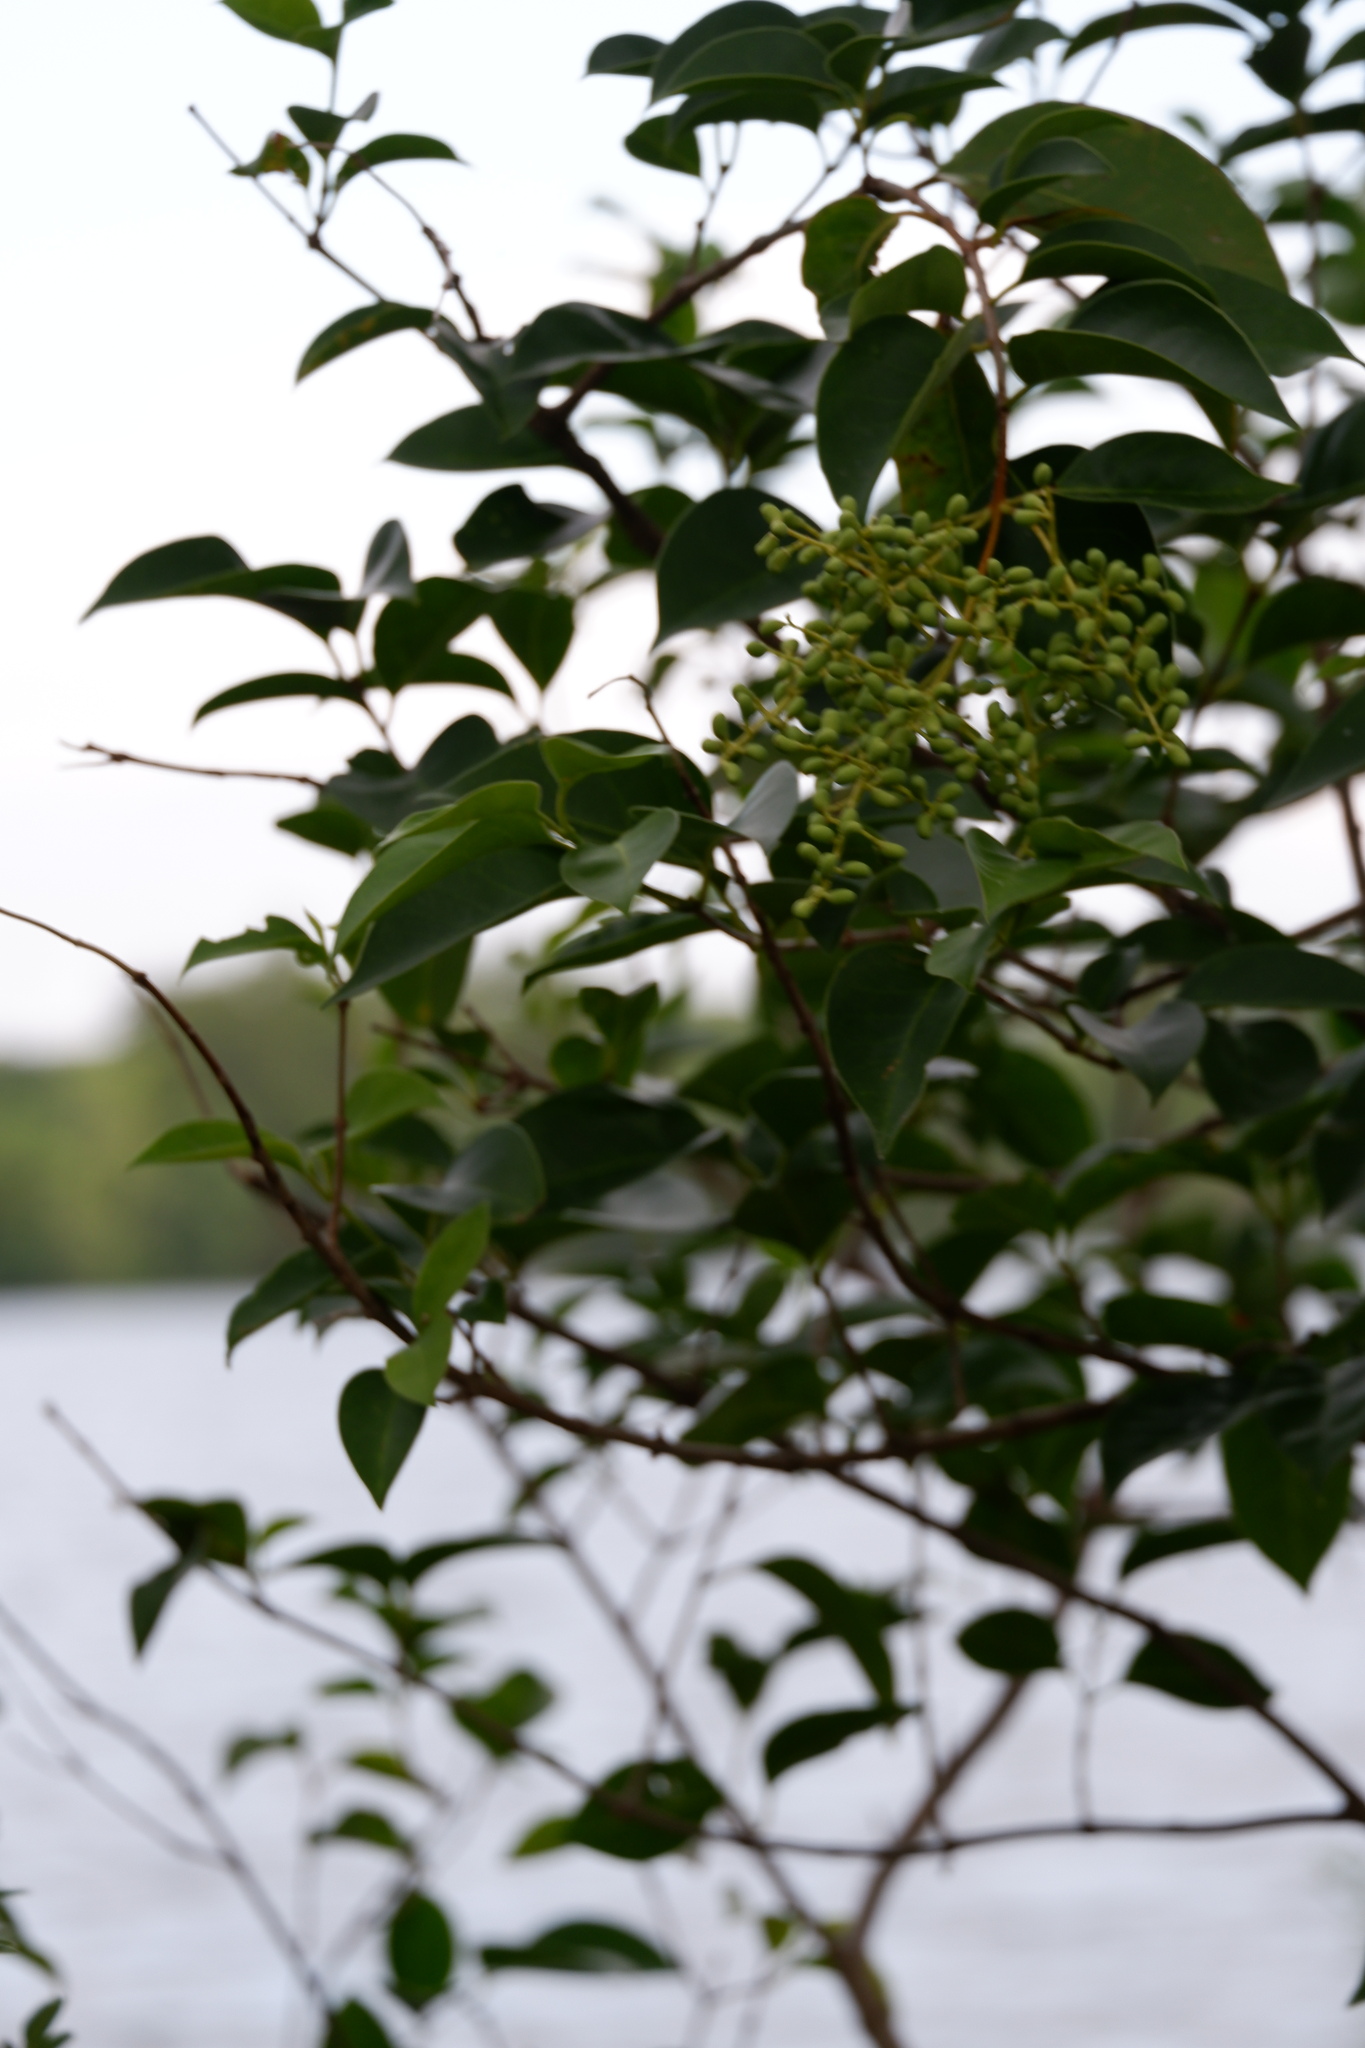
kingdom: Plantae
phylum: Tracheophyta
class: Magnoliopsida
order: Lamiales
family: Oleaceae
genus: Ligustrum
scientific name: Ligustrum lucidum
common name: Glossy privet
